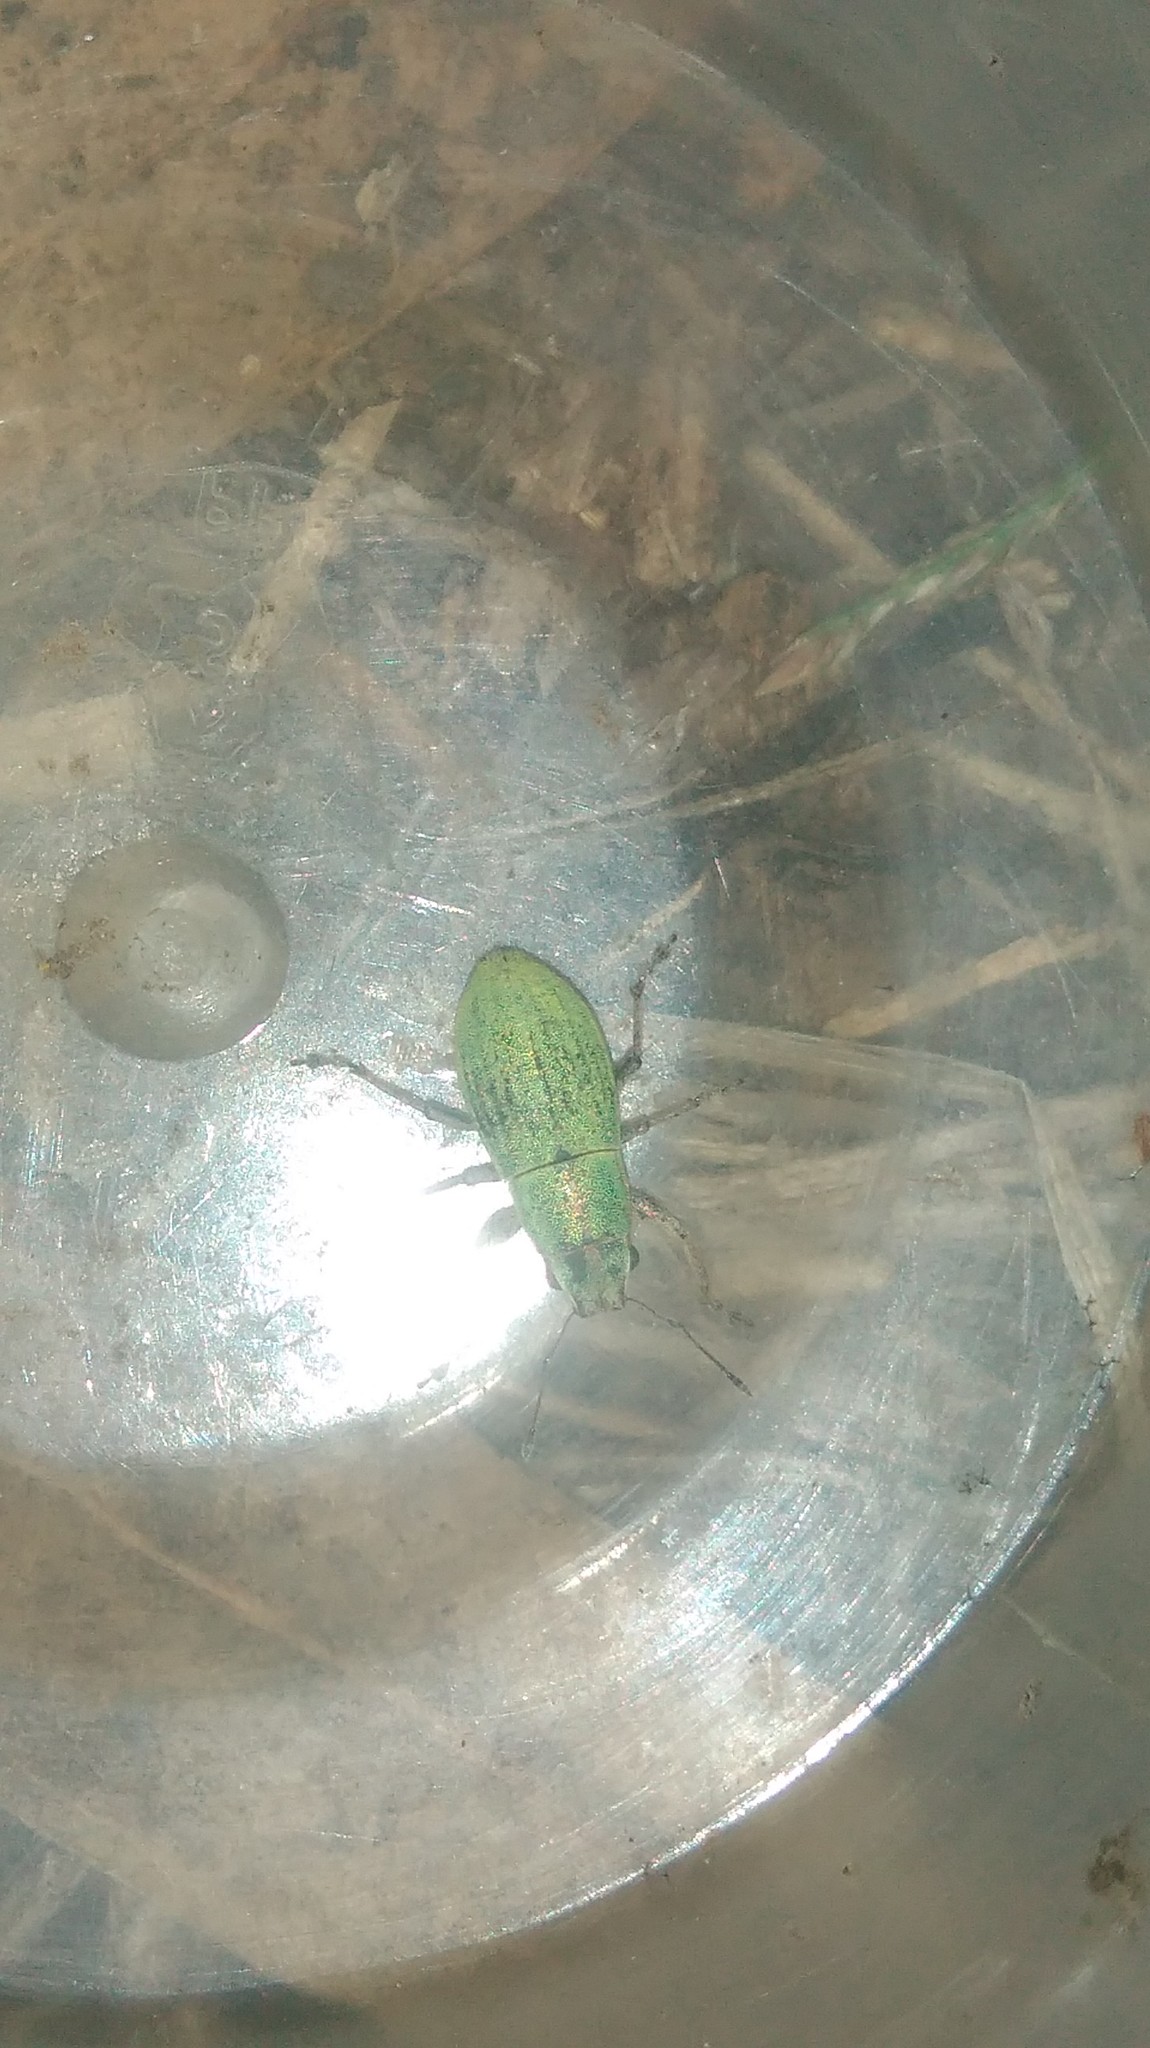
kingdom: Animalia
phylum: Arthropoda
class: Insecta
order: Coleoptera
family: Curculionidae
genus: Pantomorus
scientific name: Pantomorus viridisquamosus
